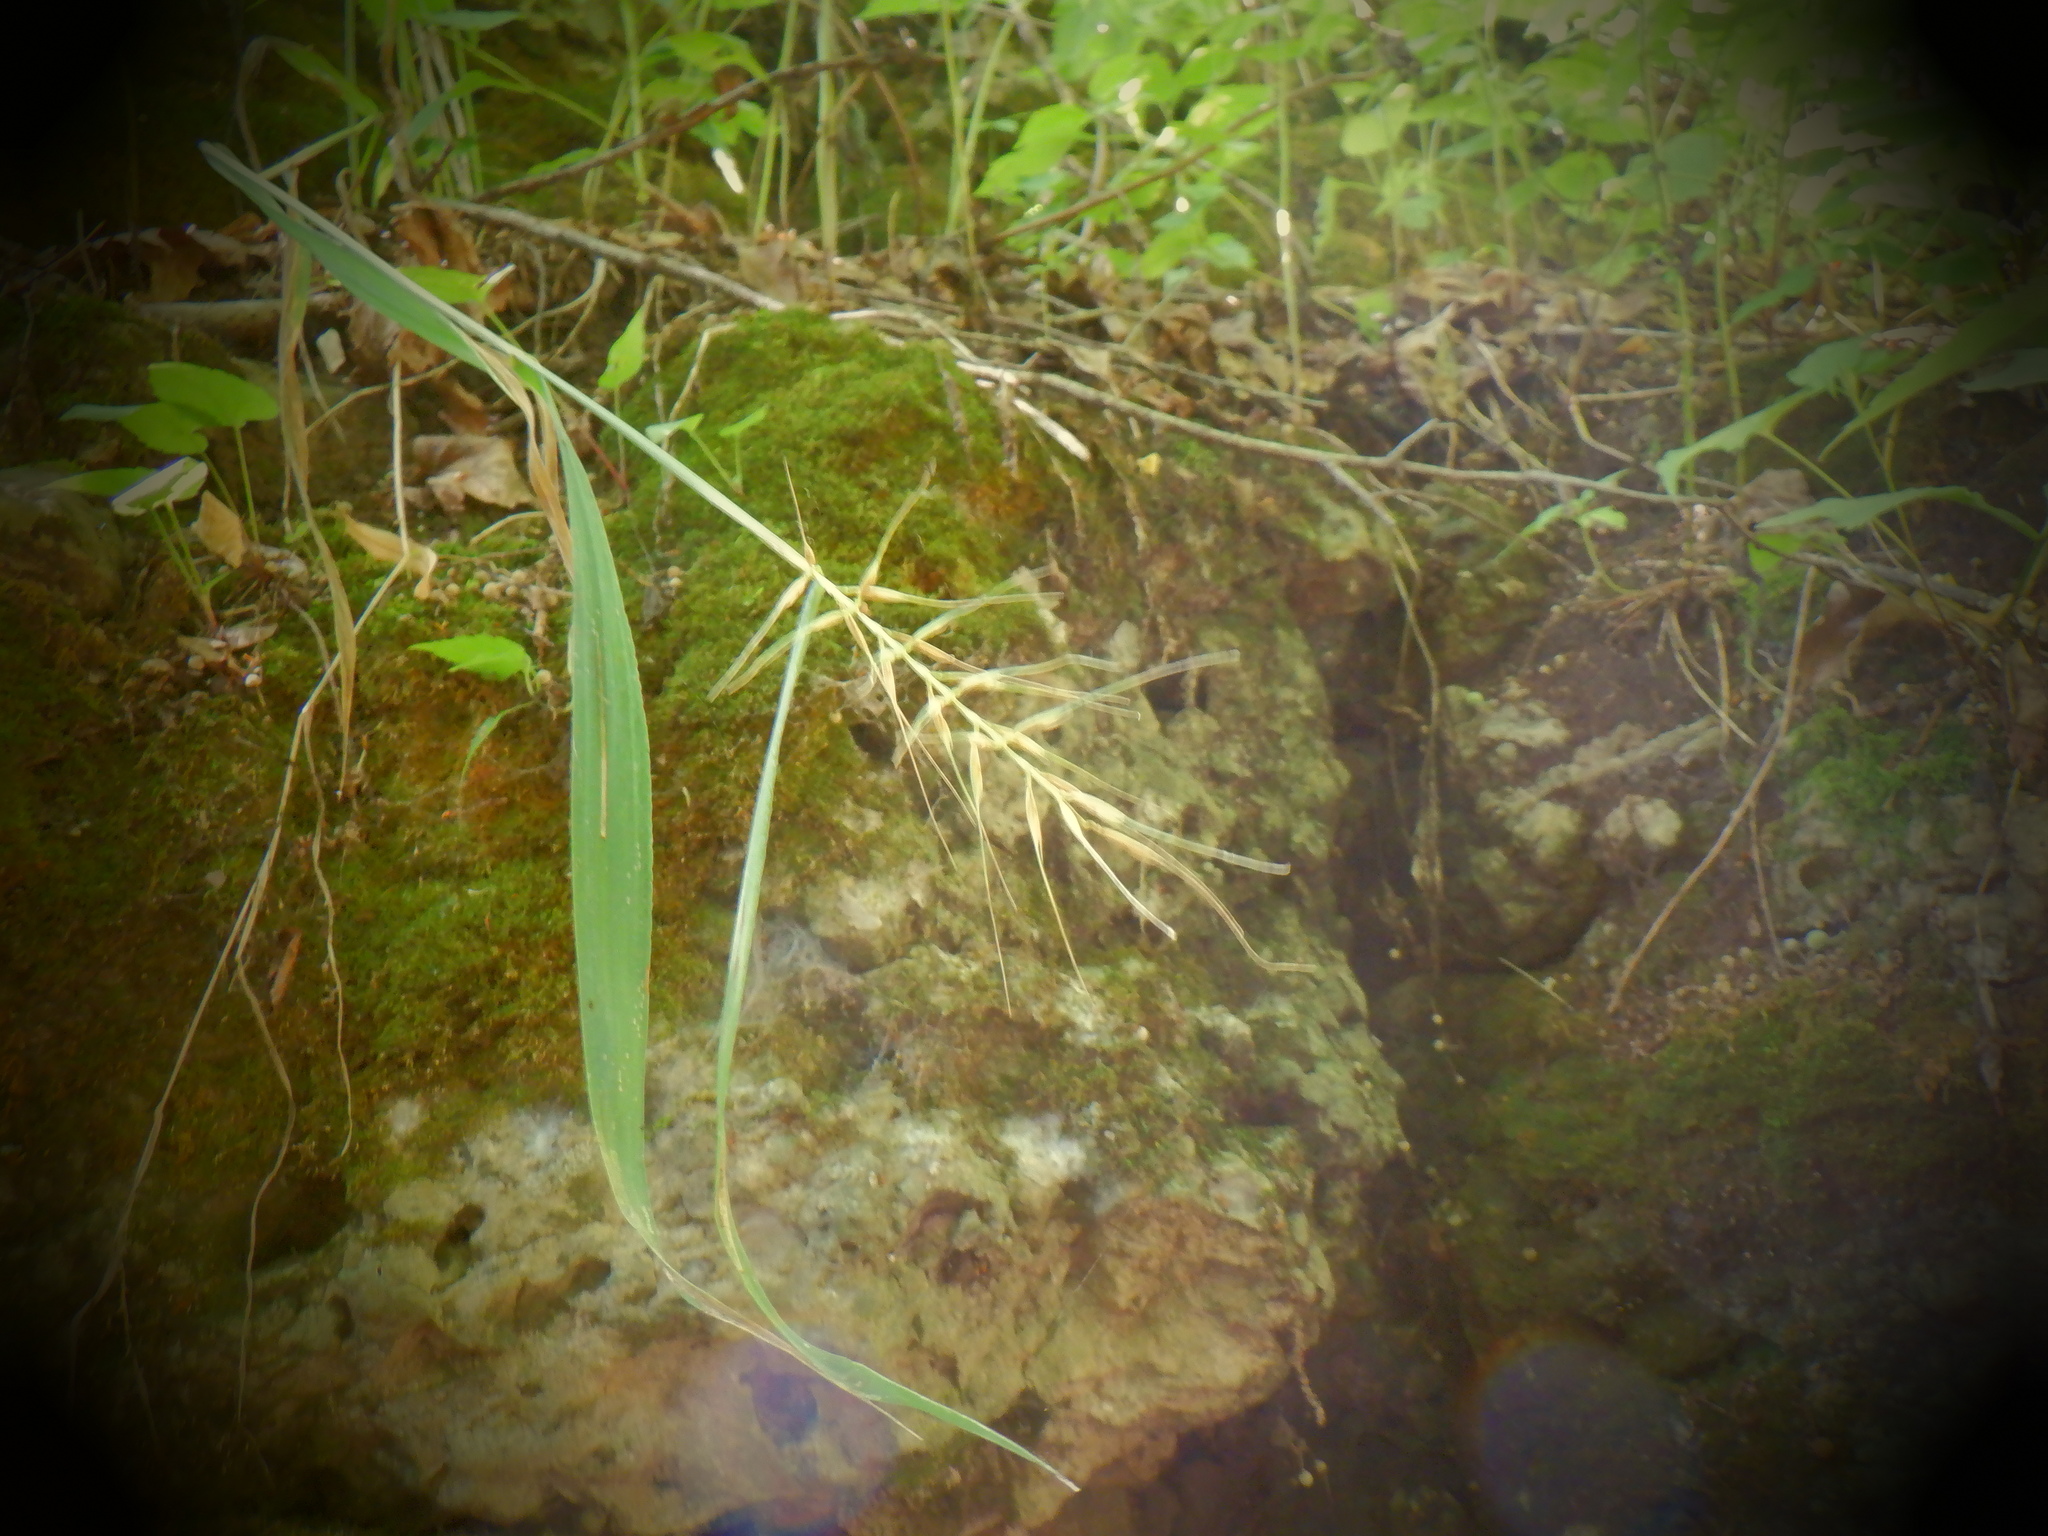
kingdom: Plantae
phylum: Tracheophyta
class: Liliopsida
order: Poales
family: Poaceae
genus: Elymus
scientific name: Elymus hystrix
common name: Bottlebrush grass
